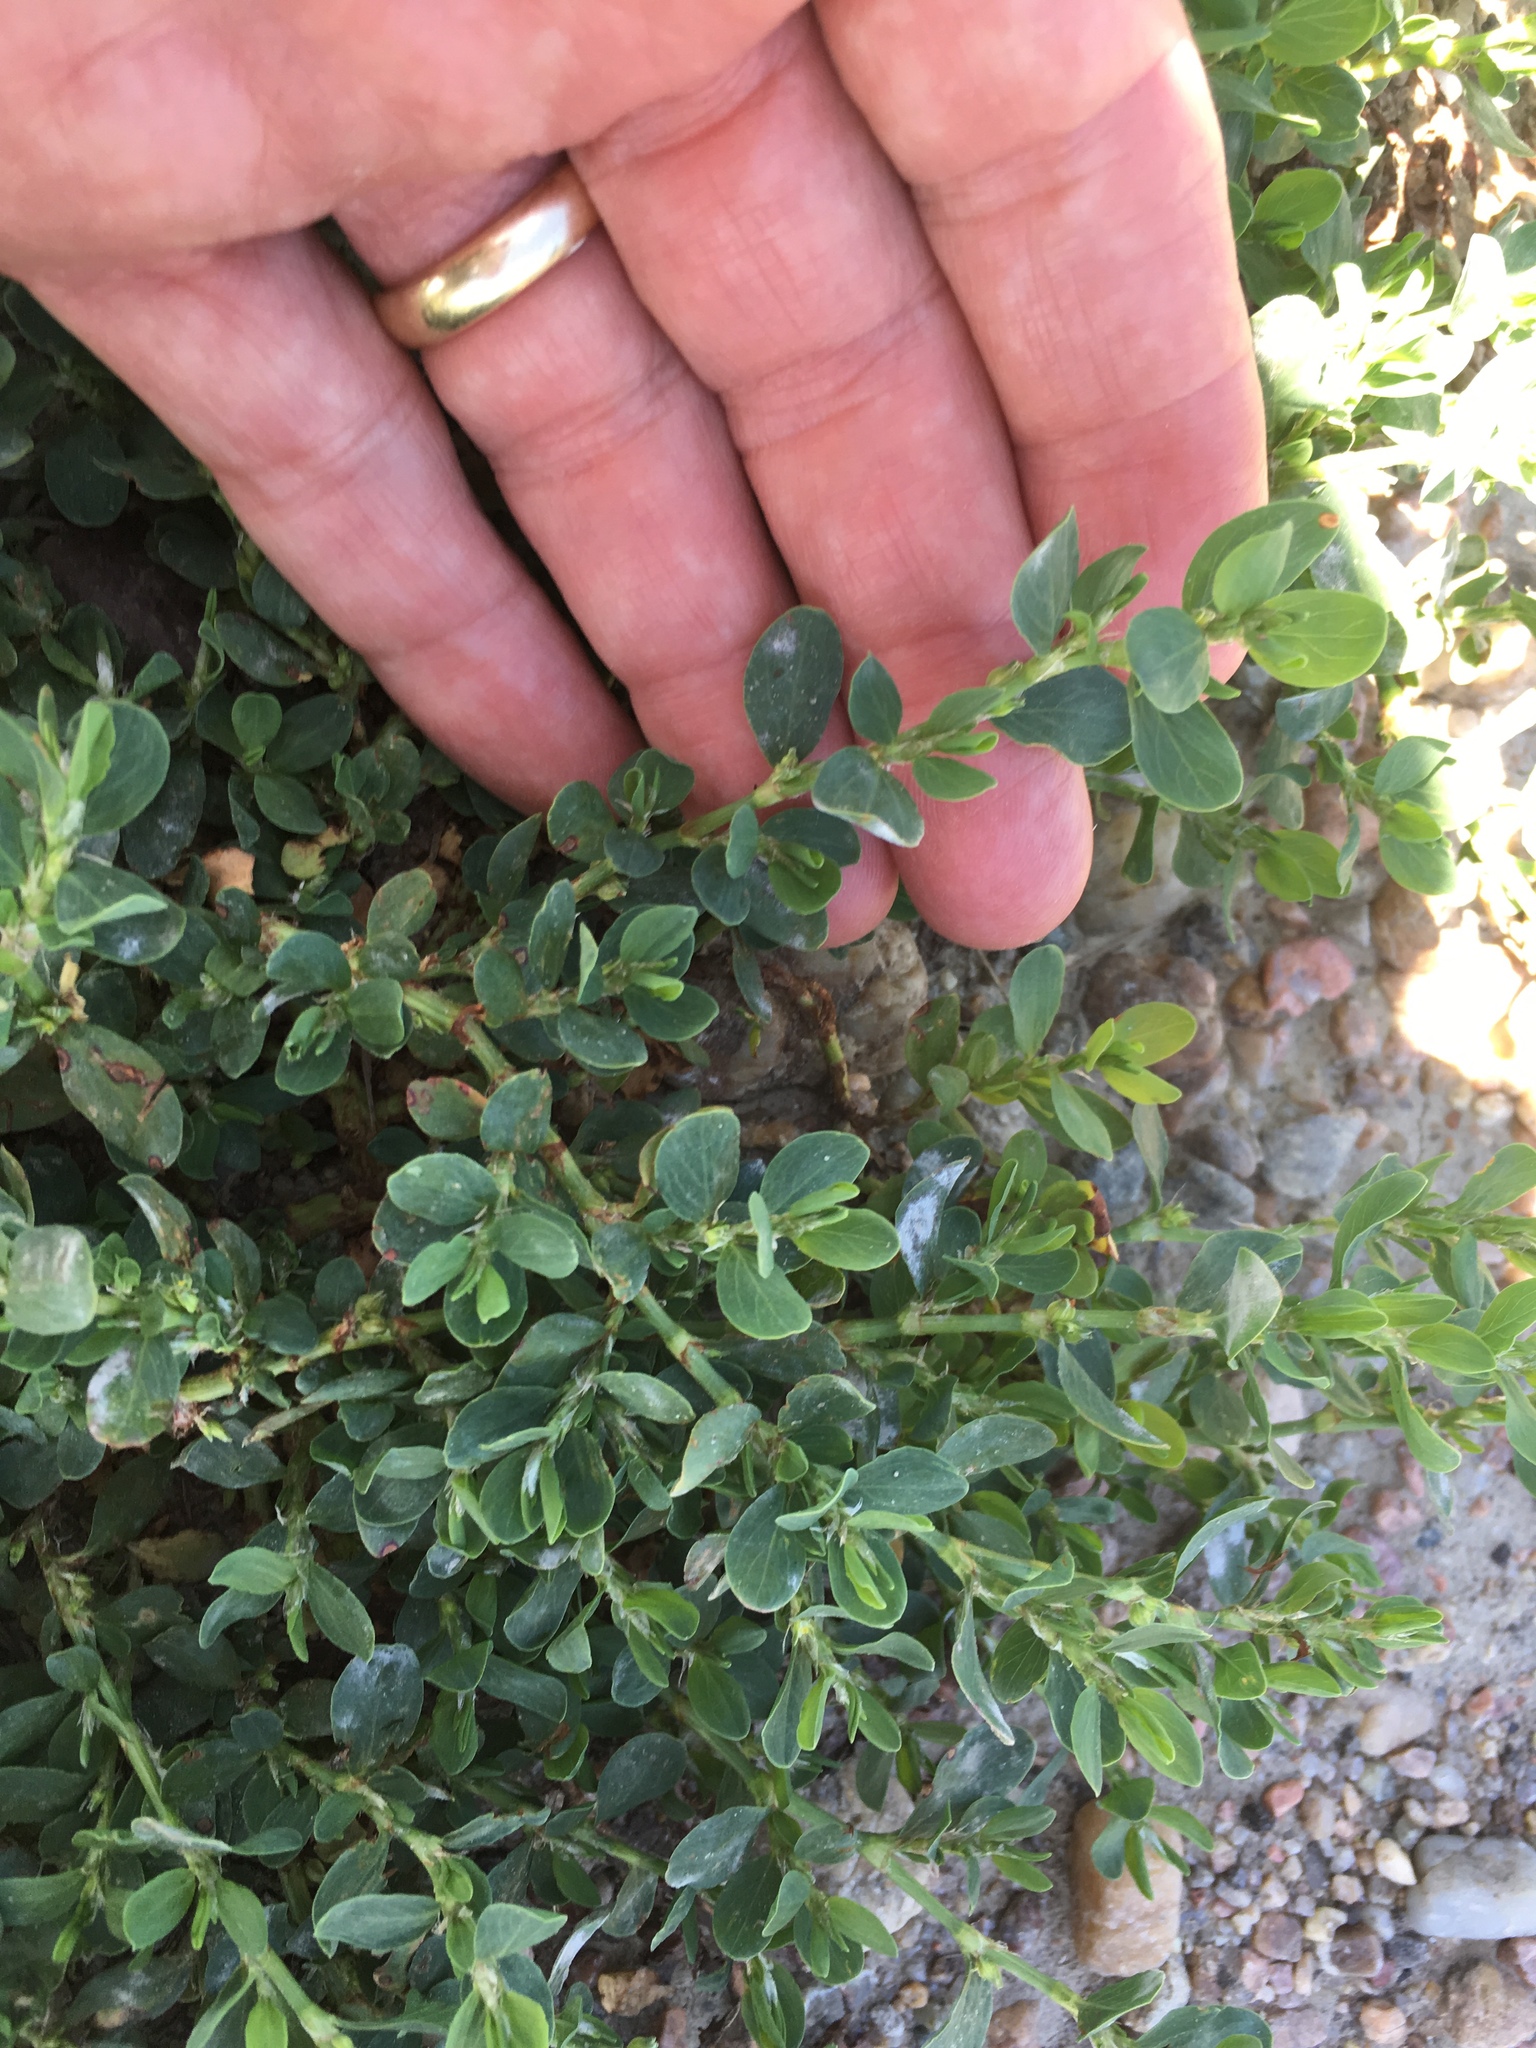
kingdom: Plantae
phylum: Tracheophyta
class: Magnoliopsida
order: Caryophyllales
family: Polygonaceae
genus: Polygonum
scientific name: Polygonum achoreum
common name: Striate knotweed
